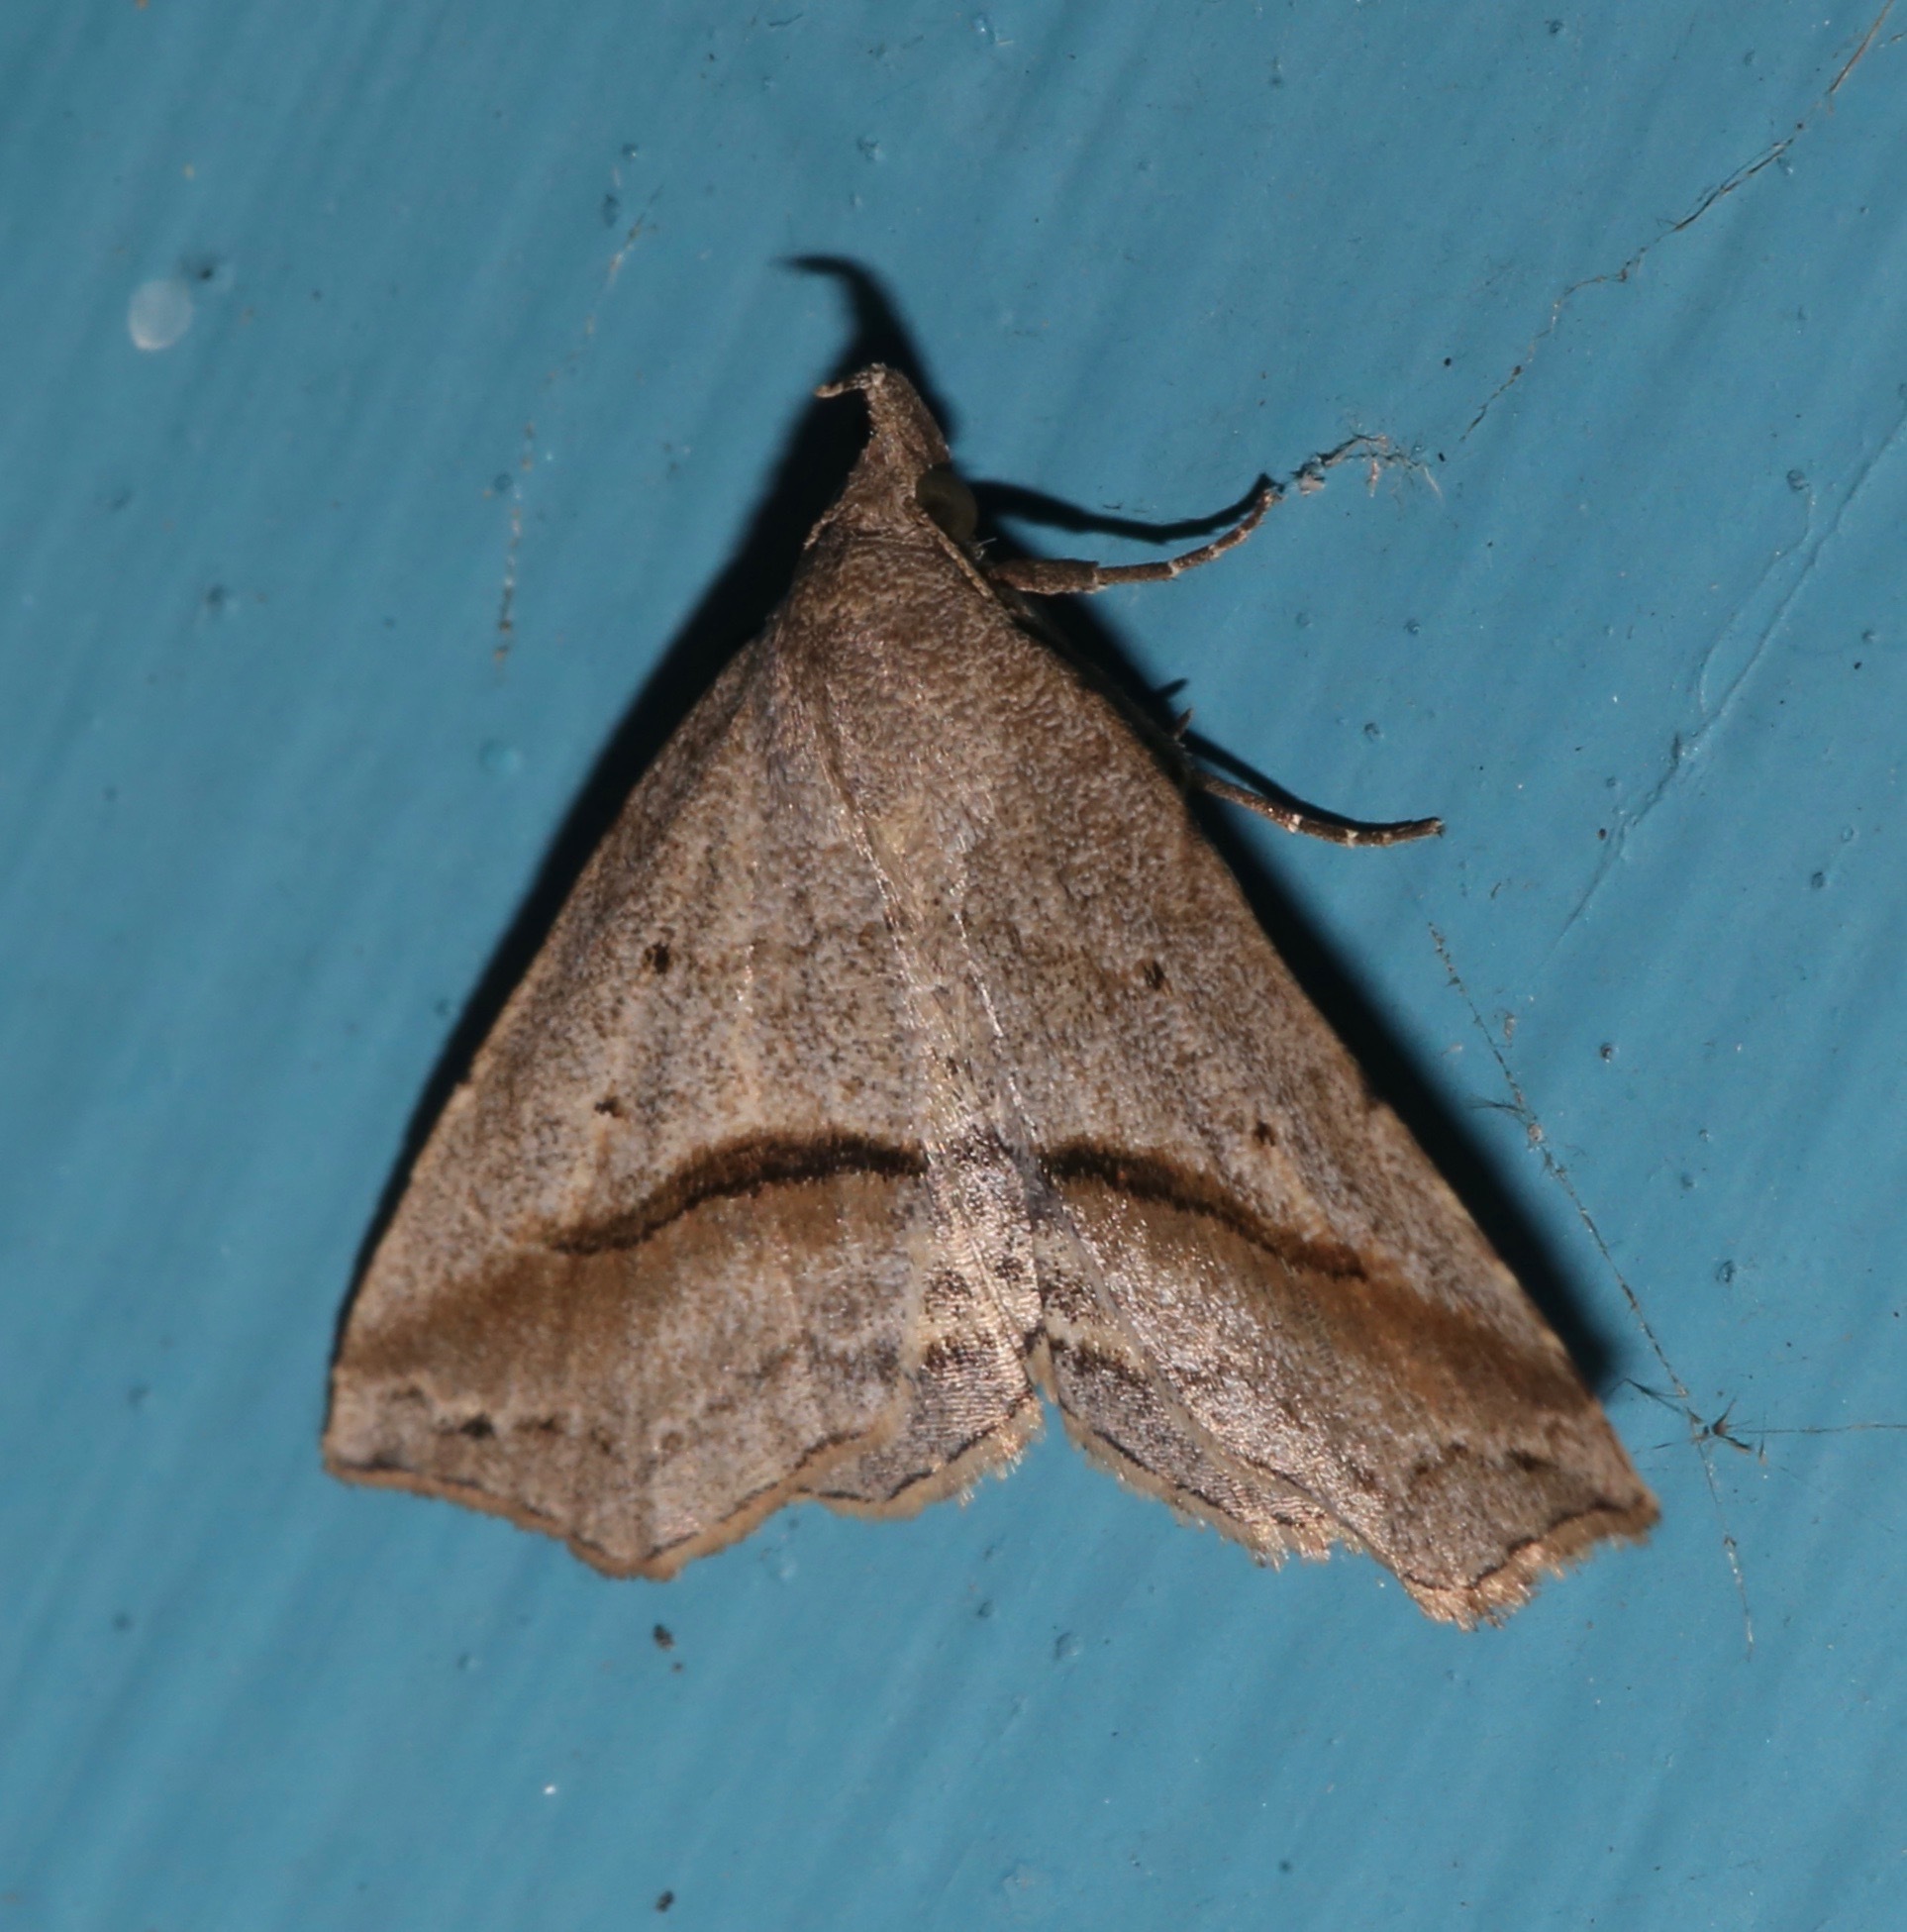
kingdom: Animalia
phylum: Arthropoda
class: Insecta
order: Lepidoptera
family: Erebidae
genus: Spargaloma
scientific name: Spargaloma perditalis
